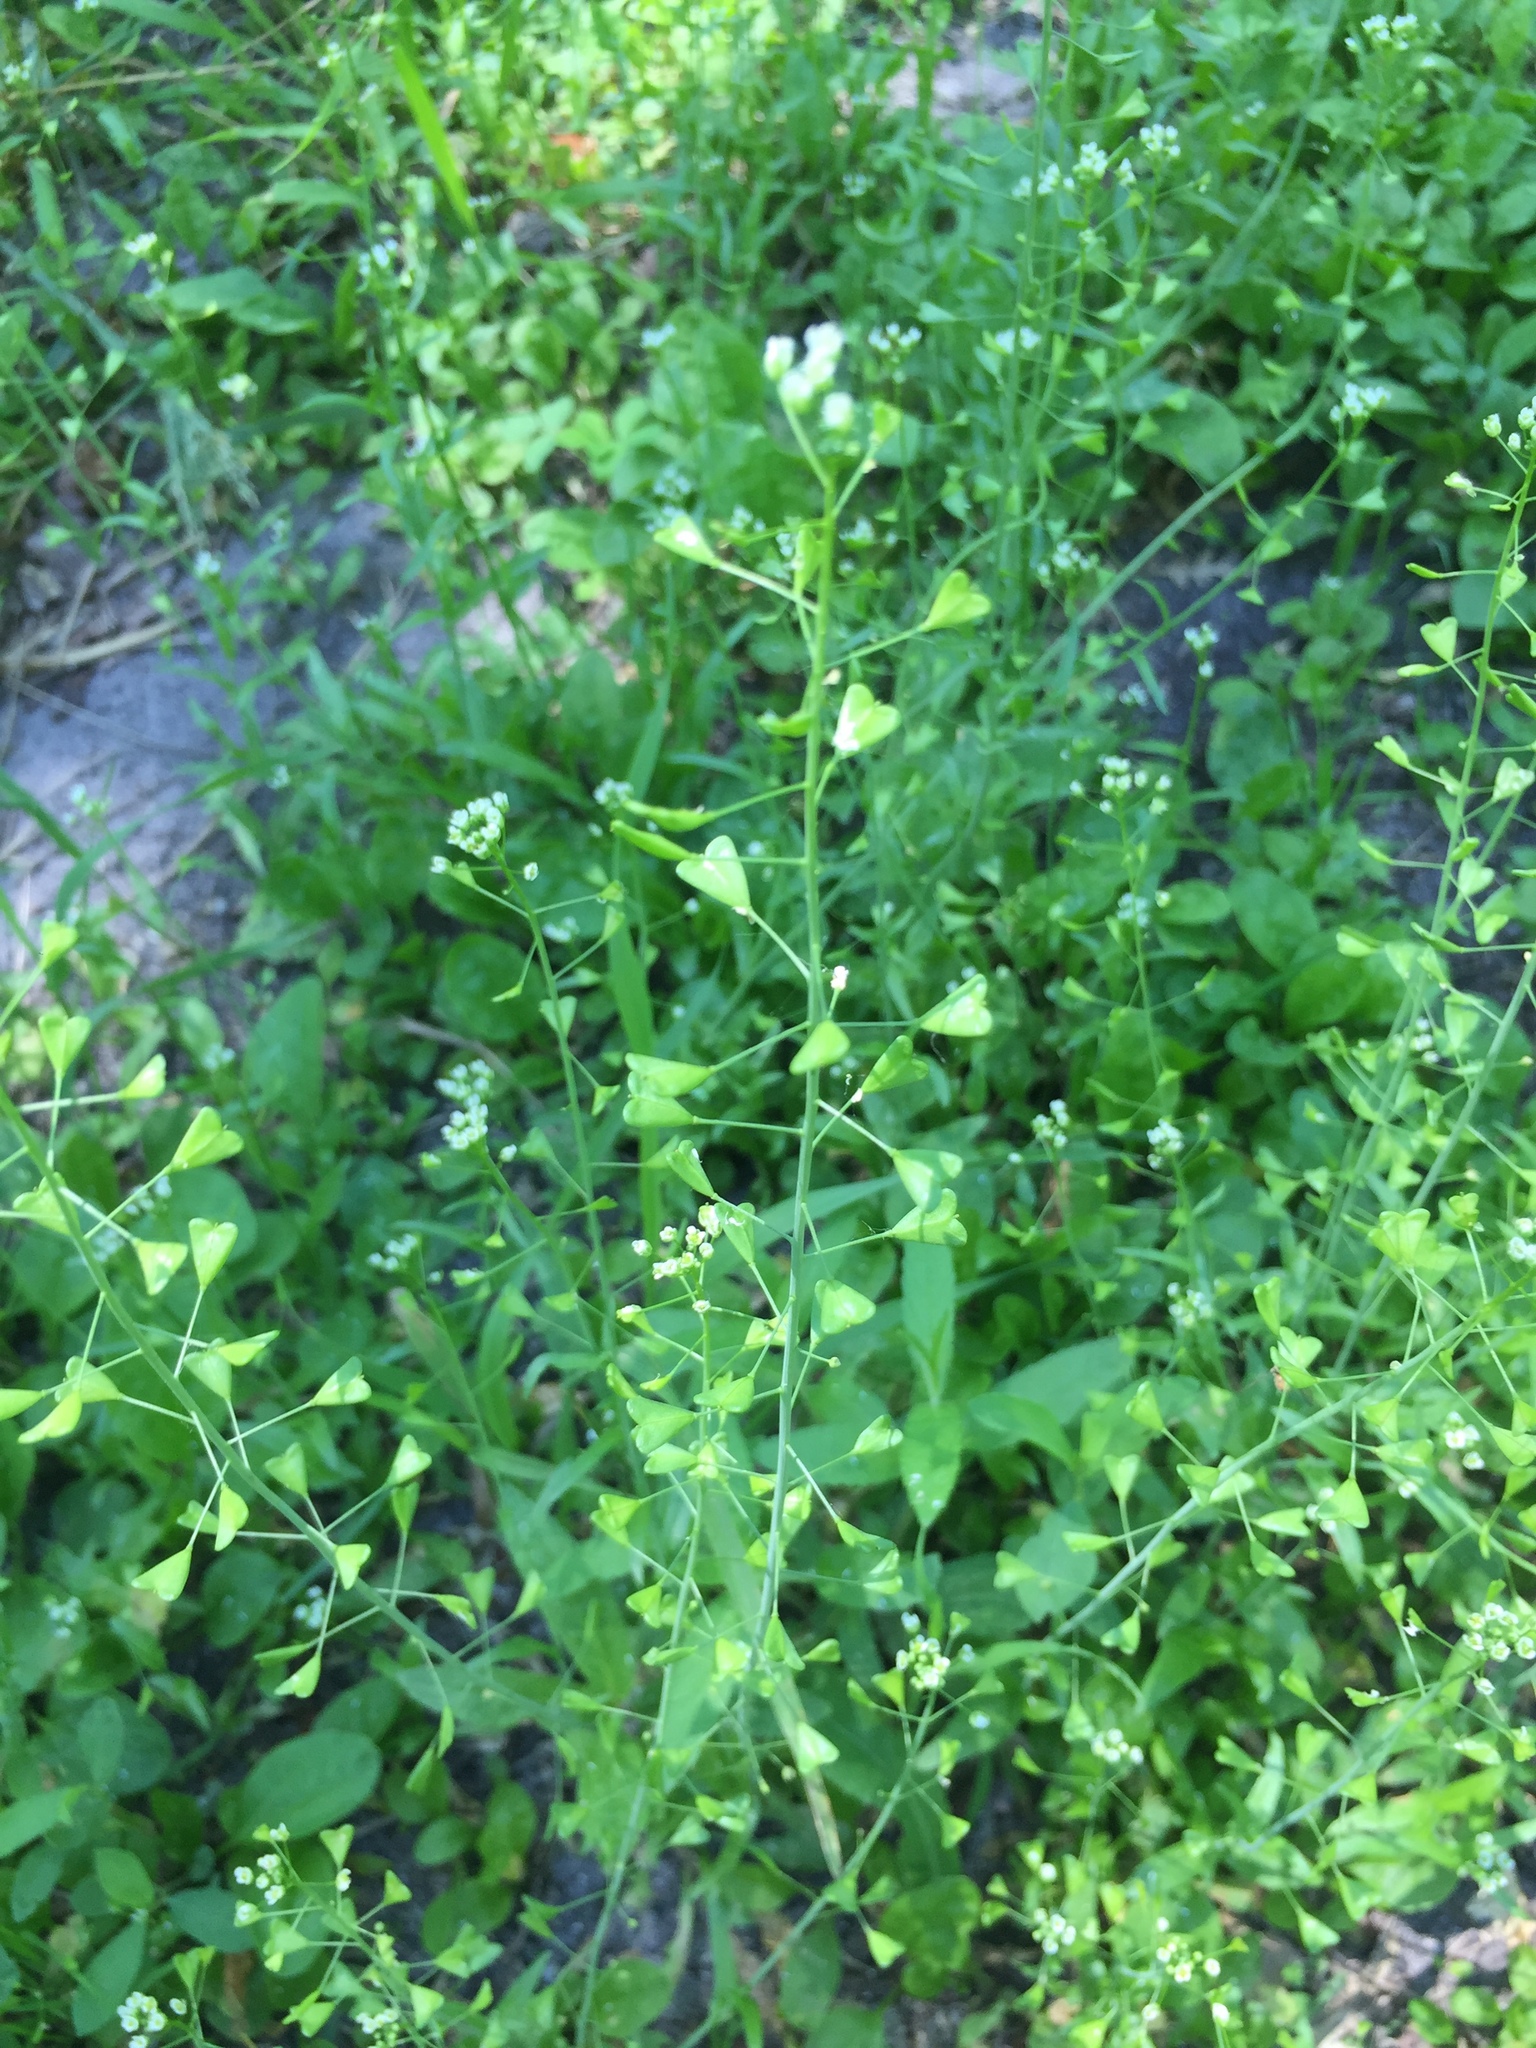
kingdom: Plantae
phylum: Tracheophyta
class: Magnoliopsida
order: Brassicales
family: Brassicaceae
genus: Capsella
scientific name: Capsella bursa-pastoris
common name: Shepherd's purse
